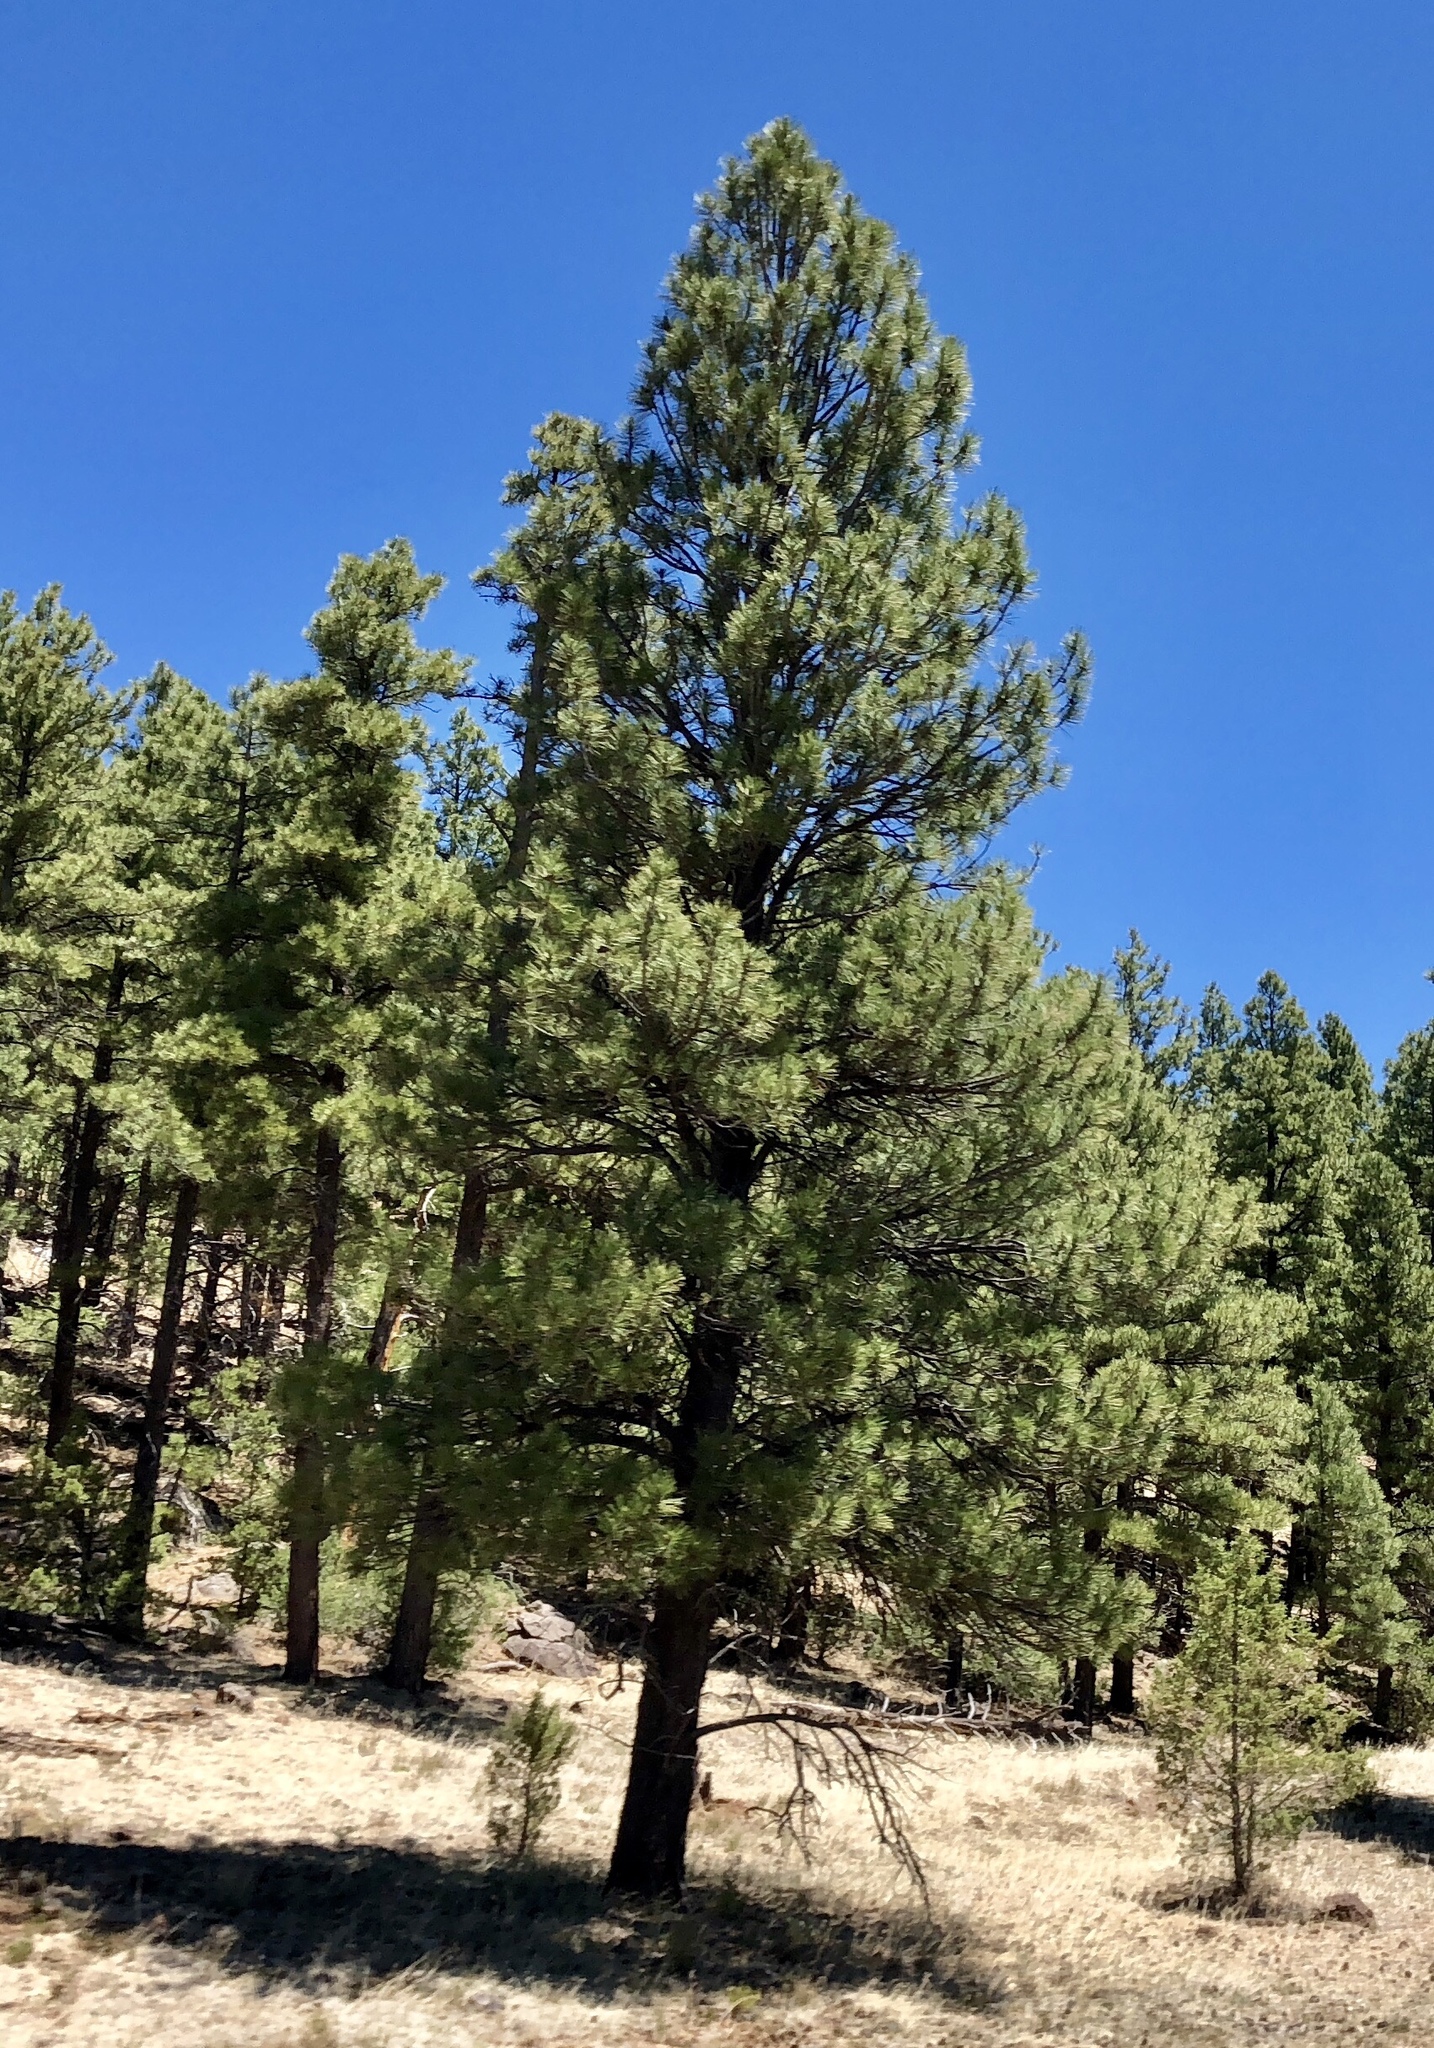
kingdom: Plantae
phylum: Tracheophyta
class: Pinopsida
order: Pinales
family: Pinaceae
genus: Pinus
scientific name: Pinus ponderosa
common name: Western yellow-pine
